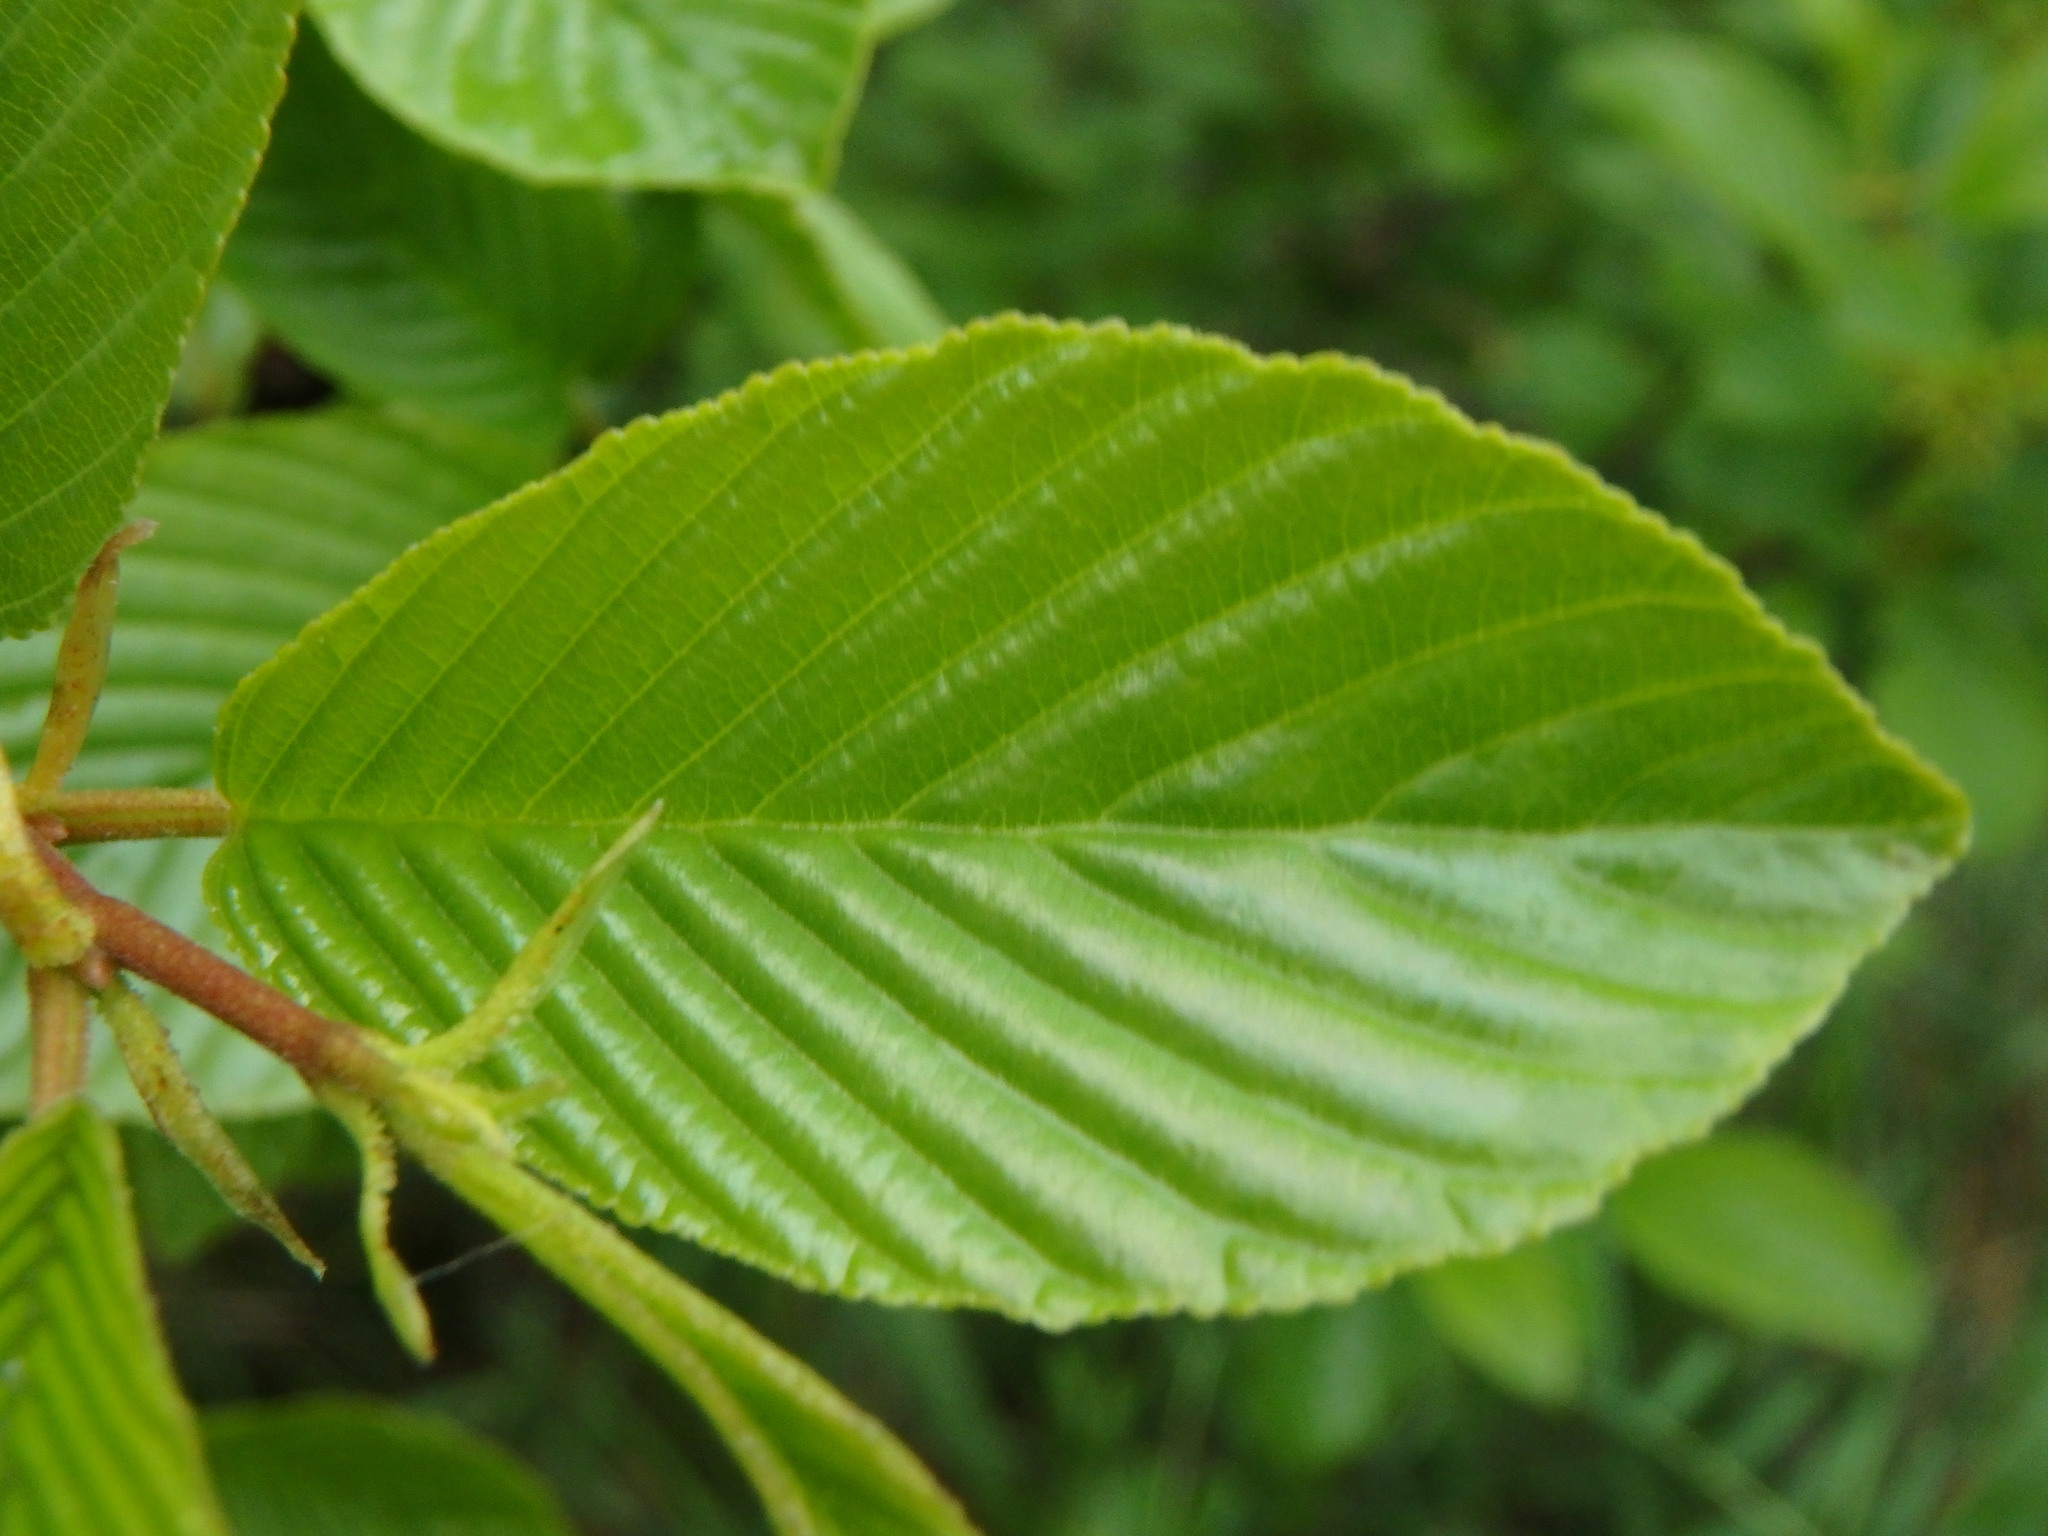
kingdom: Plantae
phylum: Tracheophyta
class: Magnoliopsida
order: Rosales
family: Rhamnaceae
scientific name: Rhamnaceae
